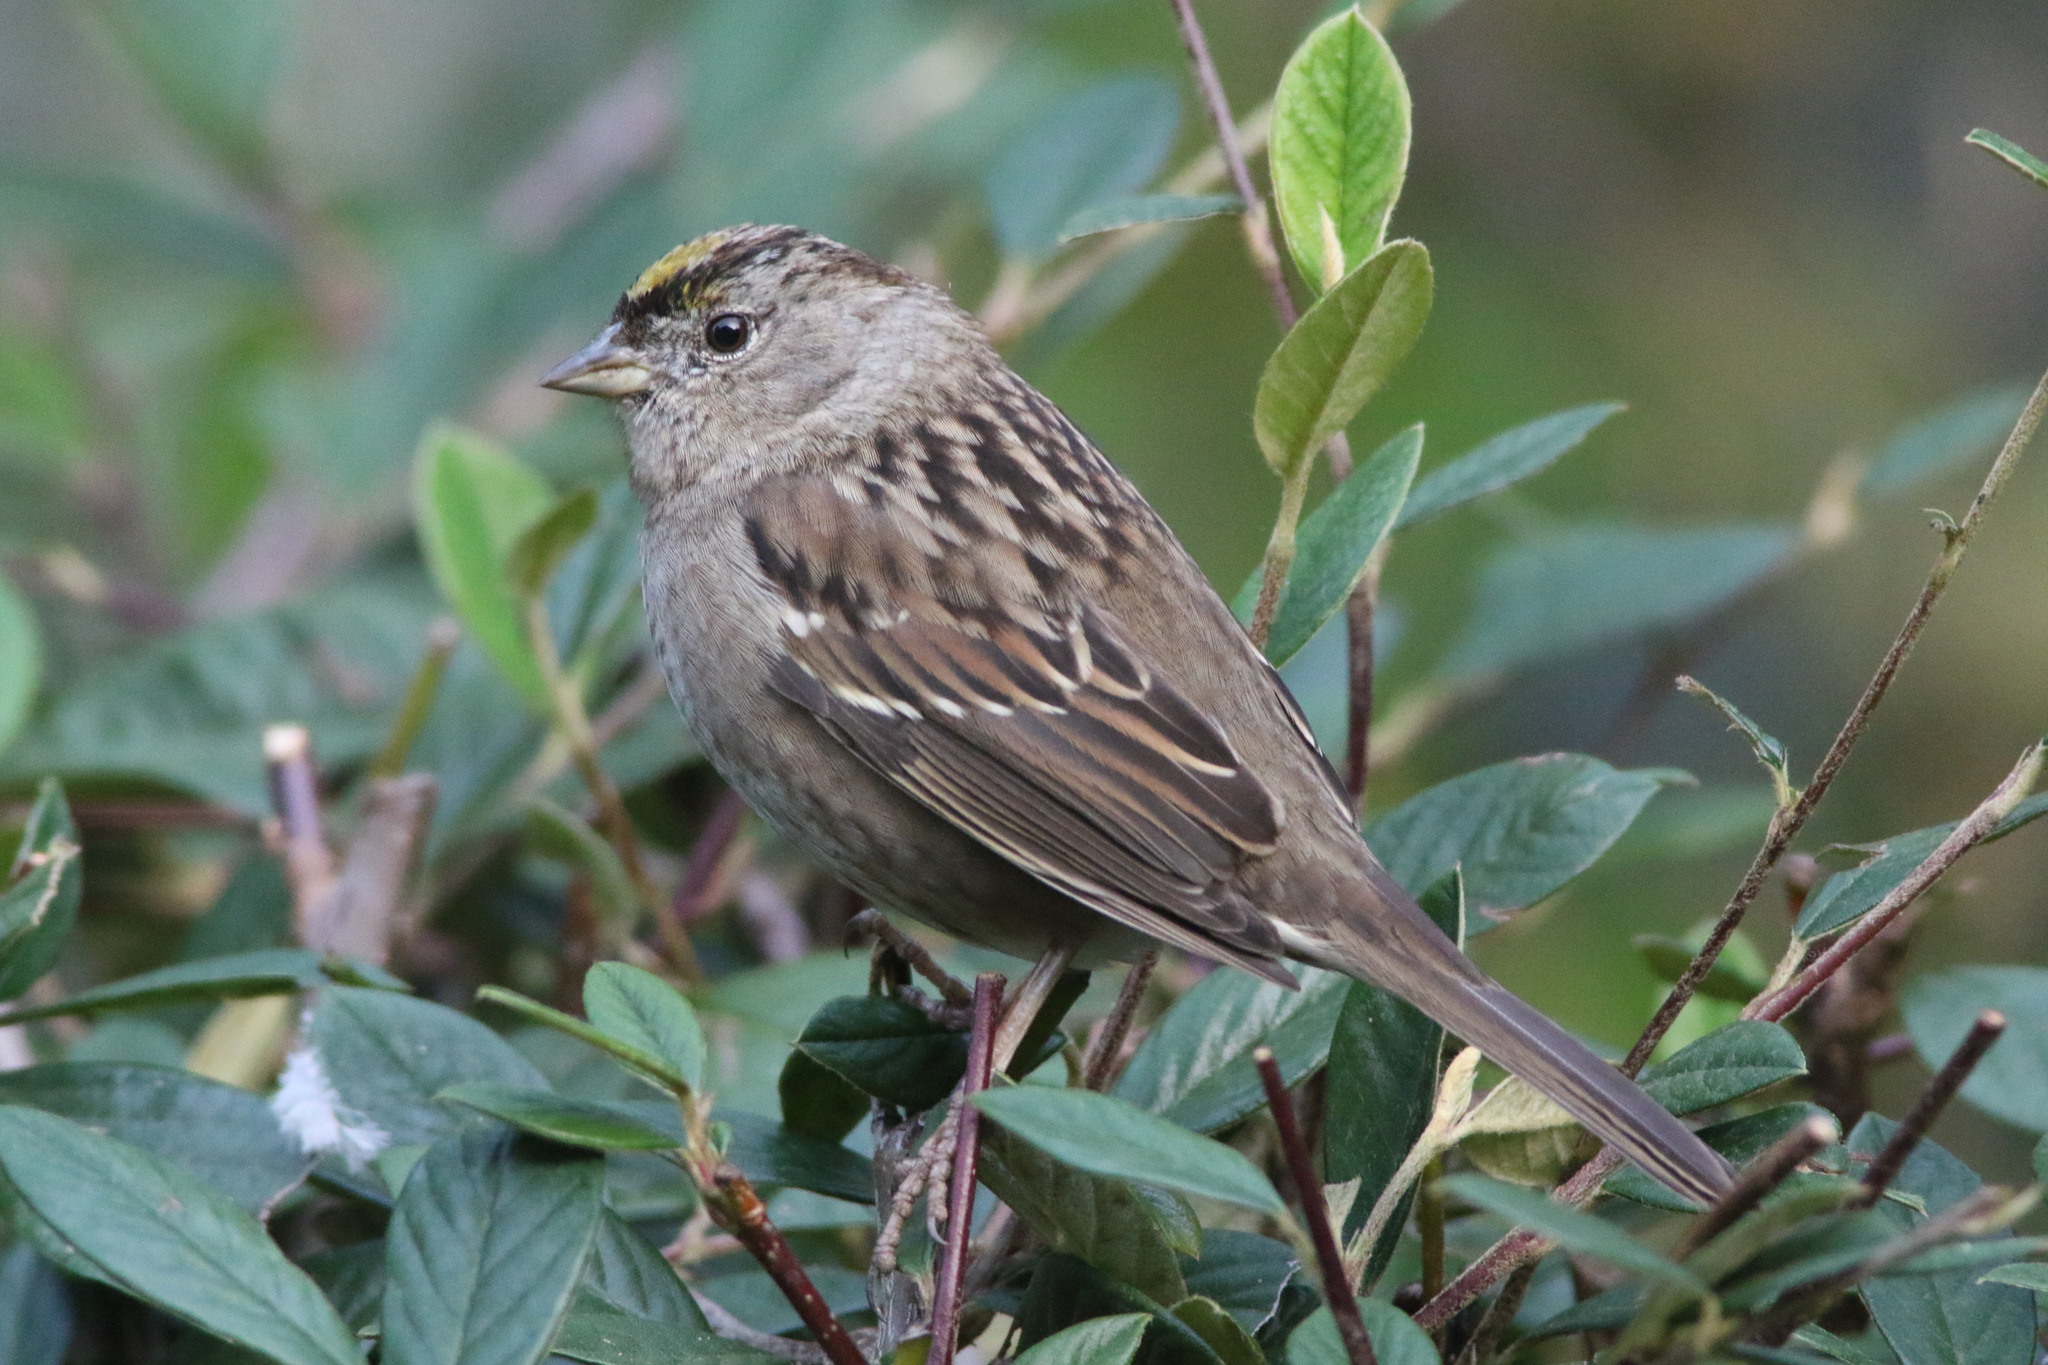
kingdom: Animalia
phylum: Chordata
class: Aves
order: Passeriformes
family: Passerellidae
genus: Zonotrichia
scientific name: Zonotrichia atricapilla
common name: Golden-crowned sparrow
